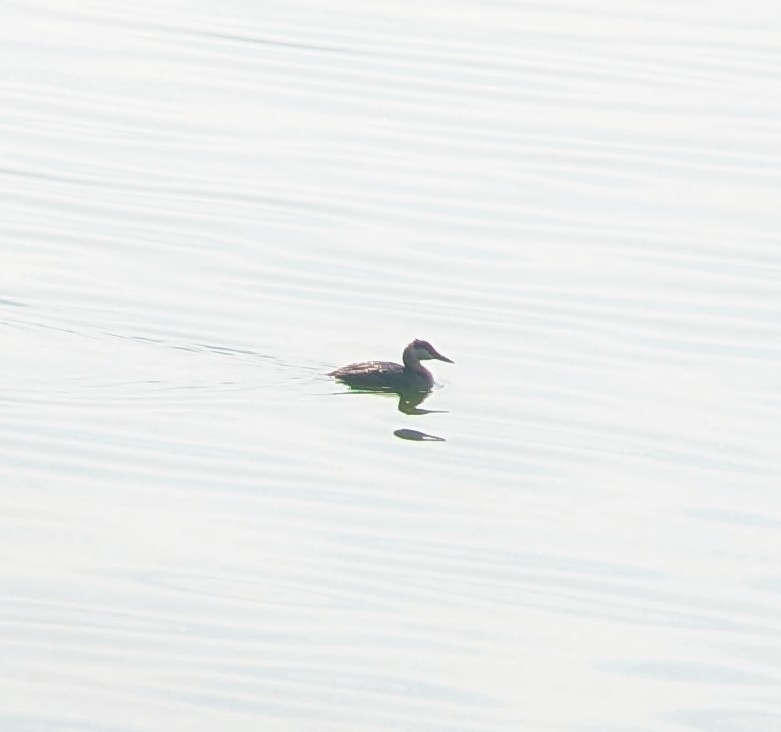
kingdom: Animalia
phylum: Chordata
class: Aves
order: Podicipediformes
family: Podicipedidae
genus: Podiceps
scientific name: Podiceps grisegena
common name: Red-necked grebe
